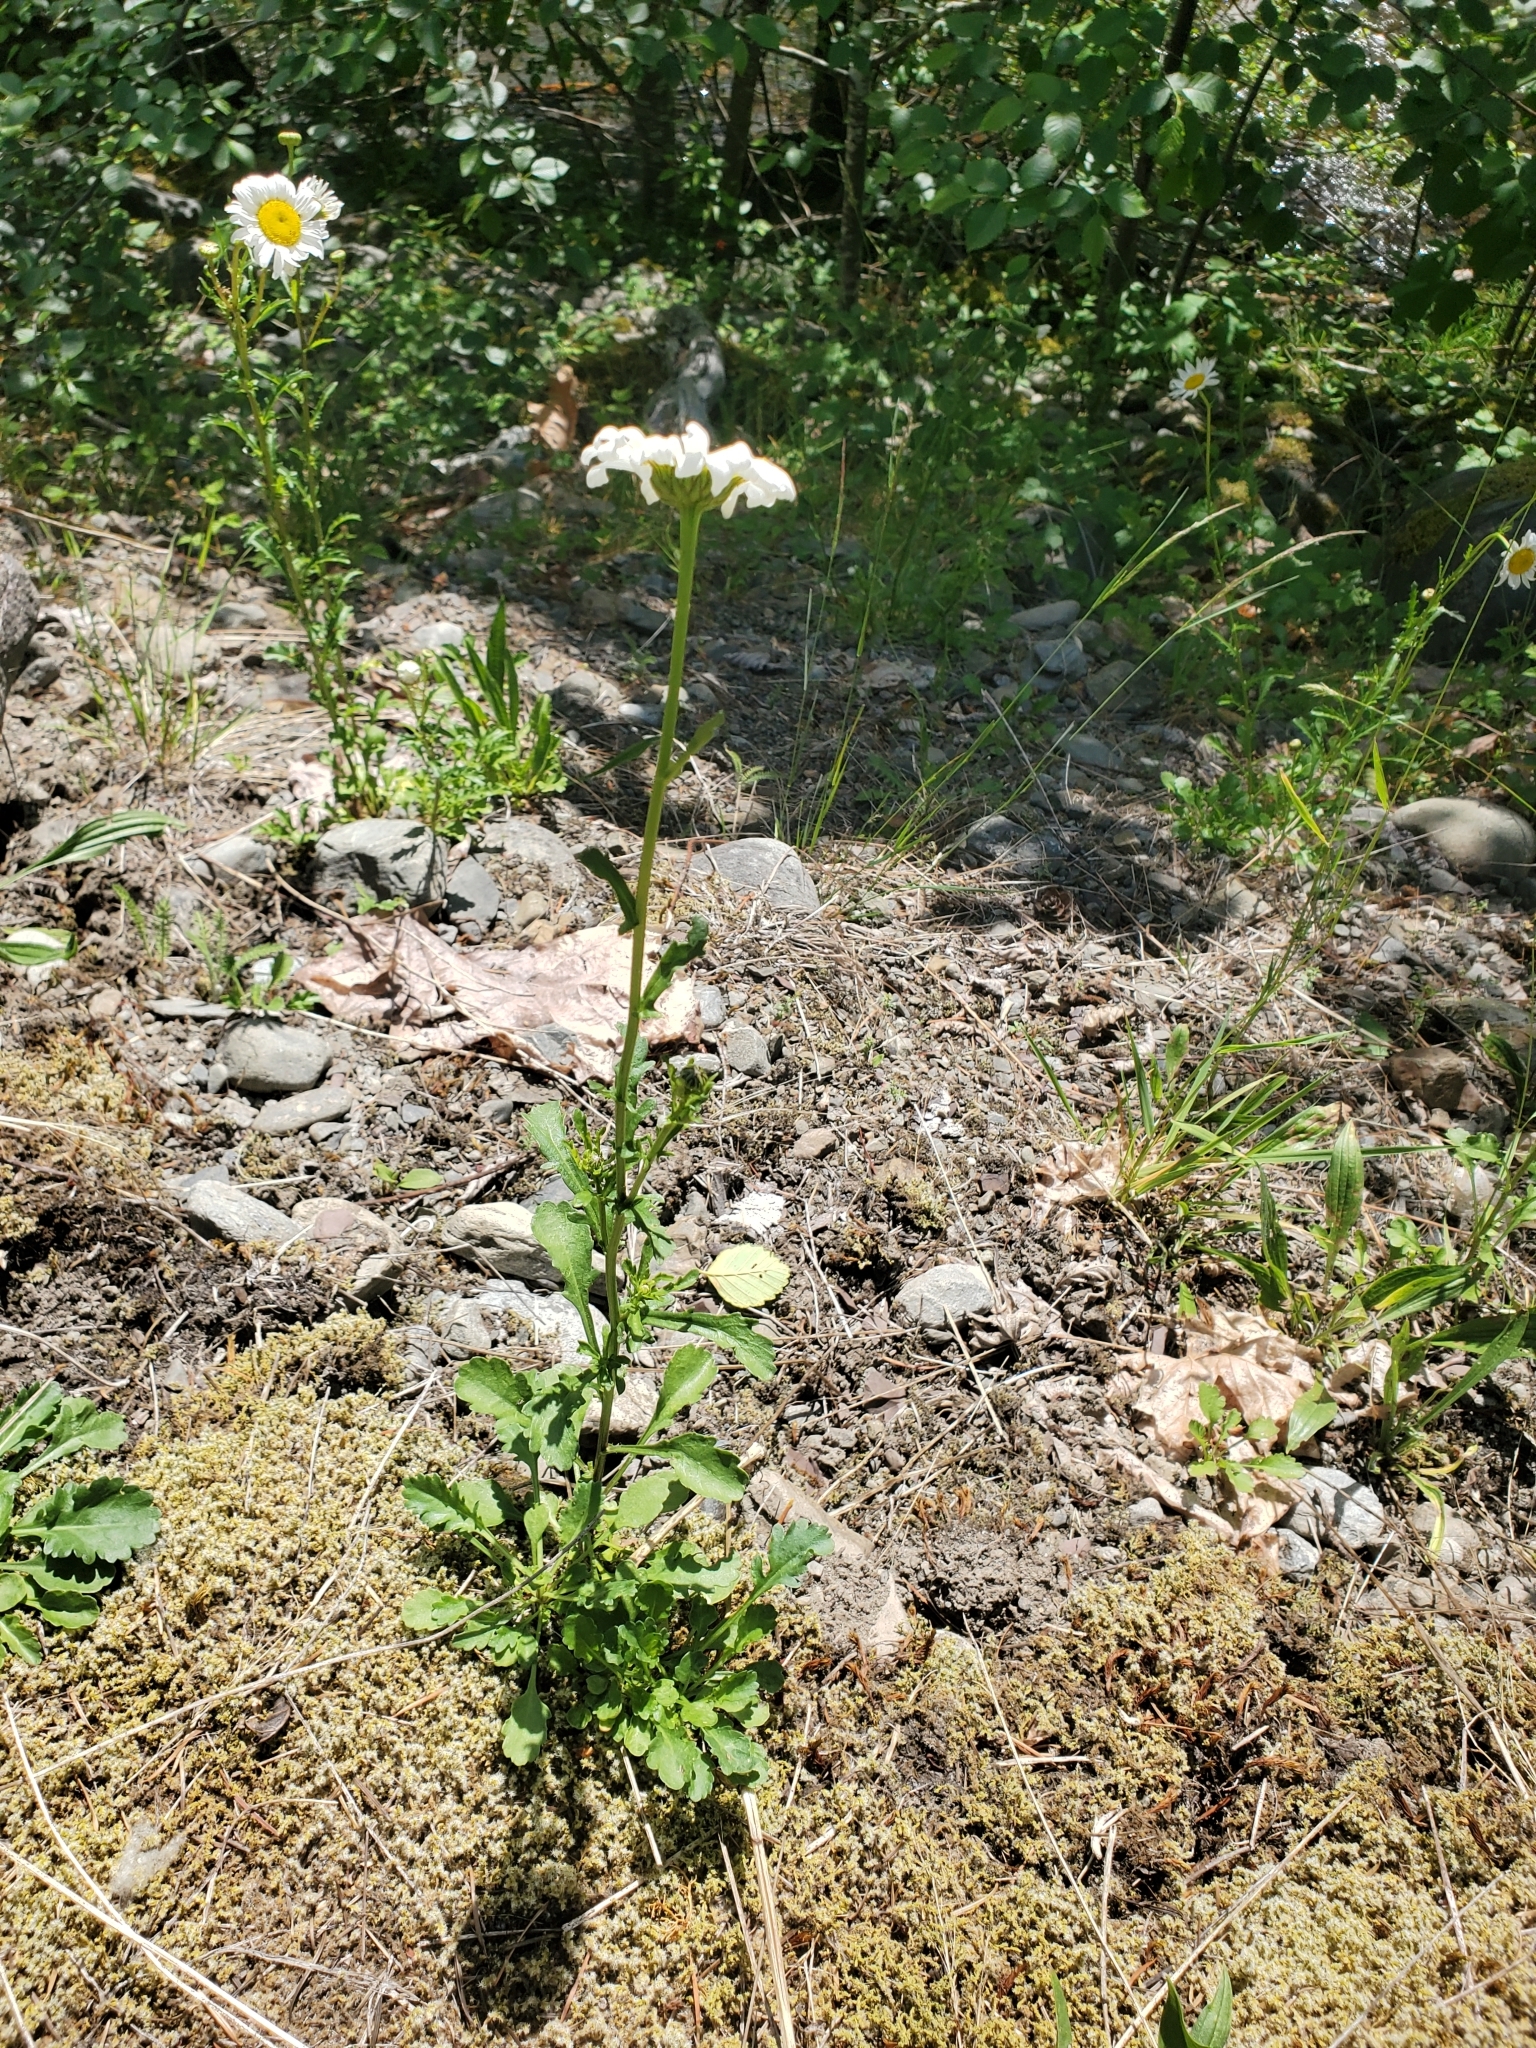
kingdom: Plantae
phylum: Tracheophyta
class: Magnoliopsida
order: Asterales
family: Asteraceae
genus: Leucanthemum
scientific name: Leucanthemum vulgare
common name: Oxeye daisy
